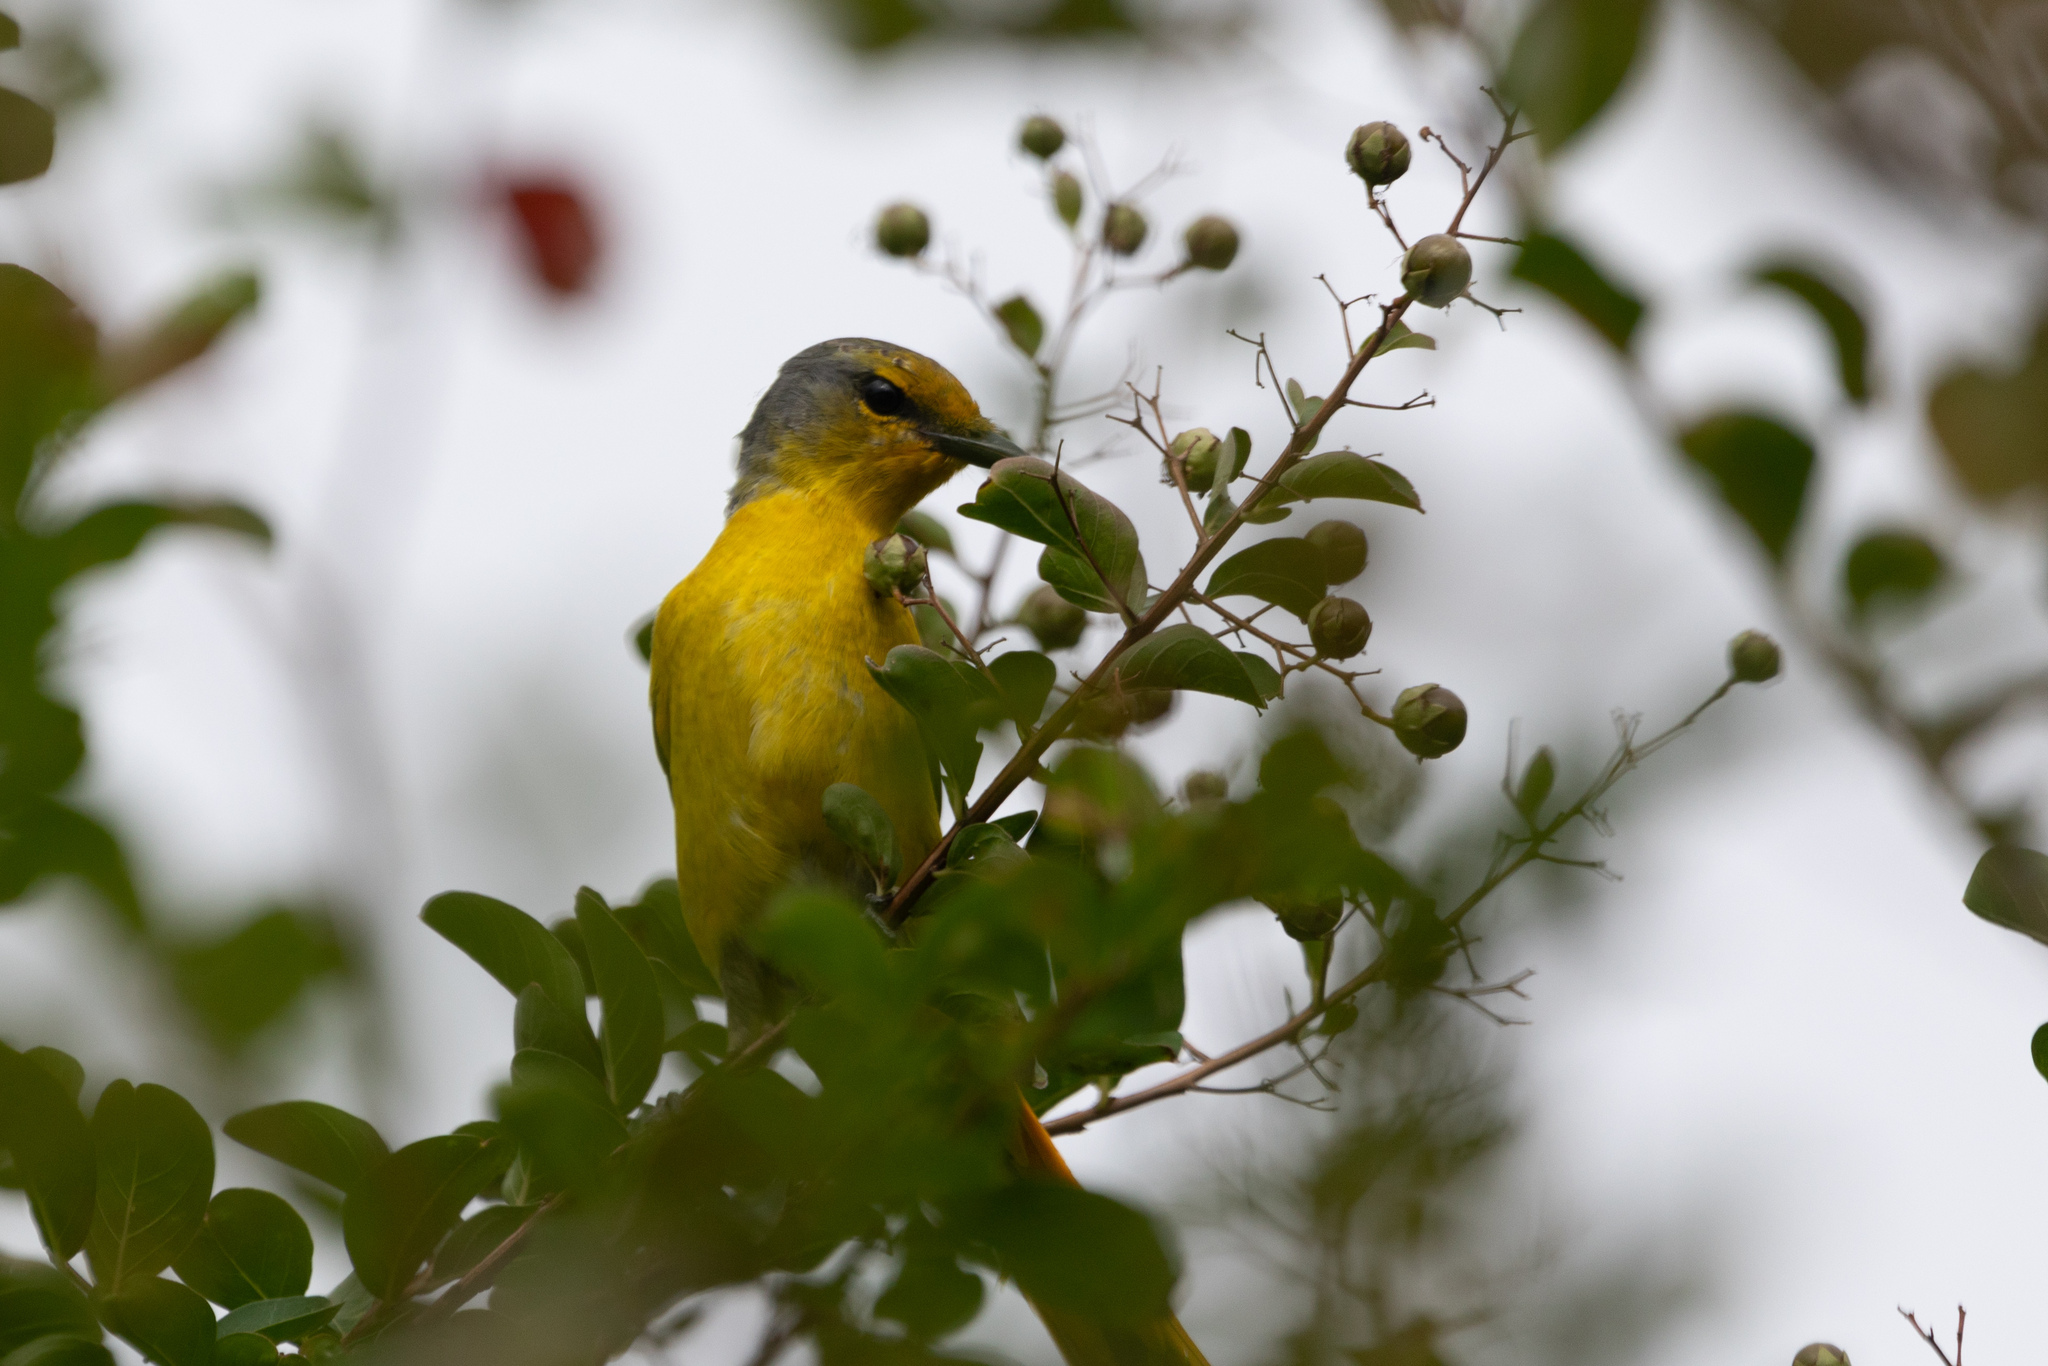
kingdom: Animalia
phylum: Chordata
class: Aves
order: Passeriformes
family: Campephagidae
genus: Pericrocotus
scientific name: Pericrocotus speciosus
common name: Scarlet minivet
